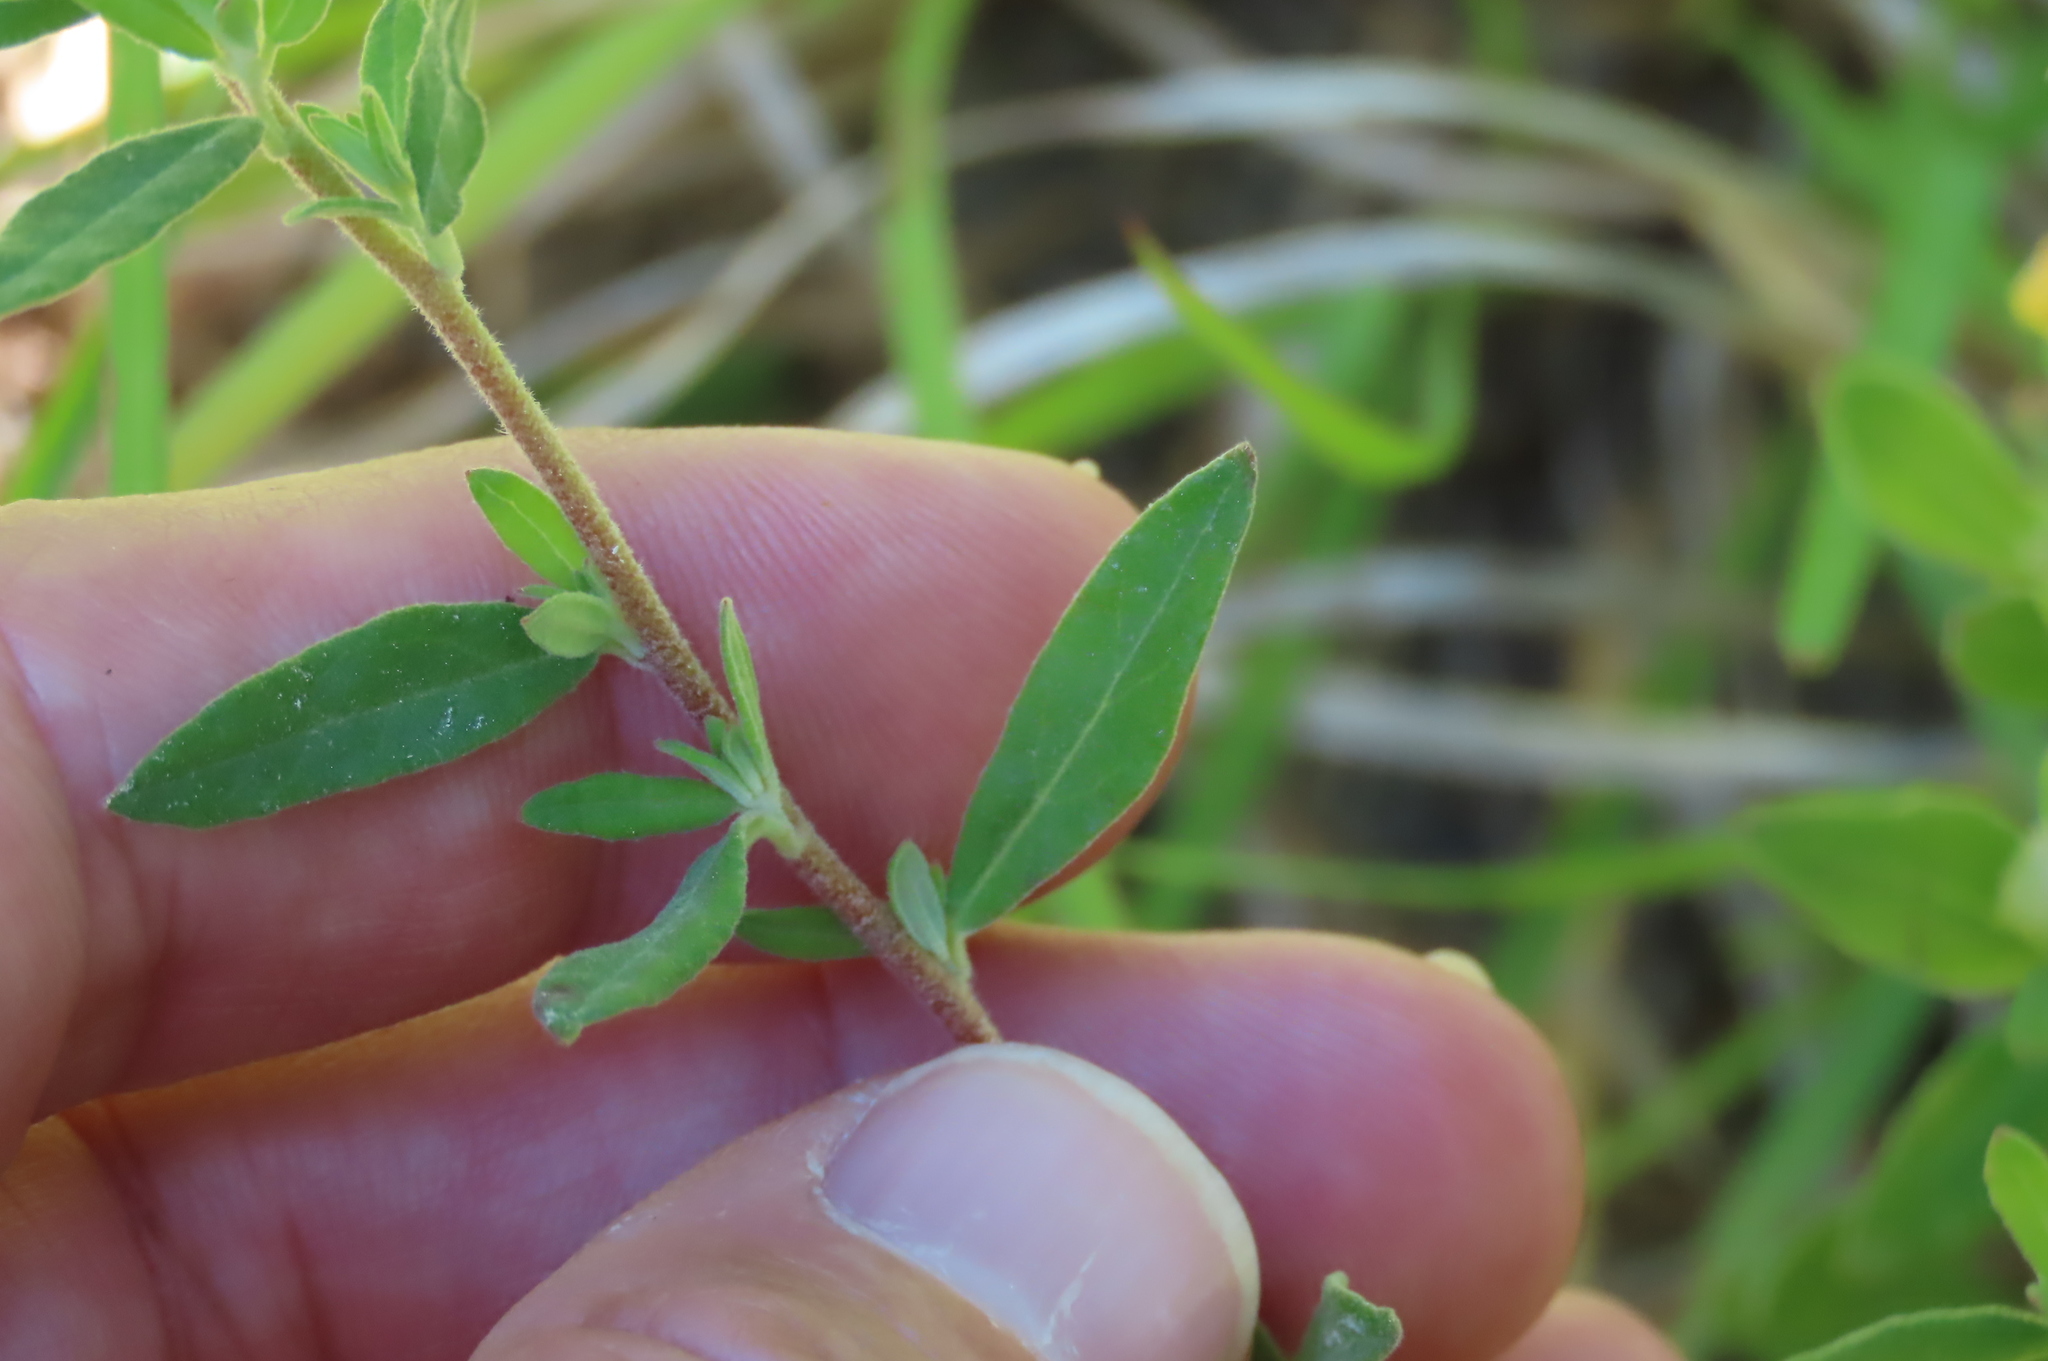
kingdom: Plantae
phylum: Tracheophyta
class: Magnoliopsida
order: Myrtales
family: Onagraceae
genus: Oenothera
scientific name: Oenothera perennis
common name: Small sundrops
